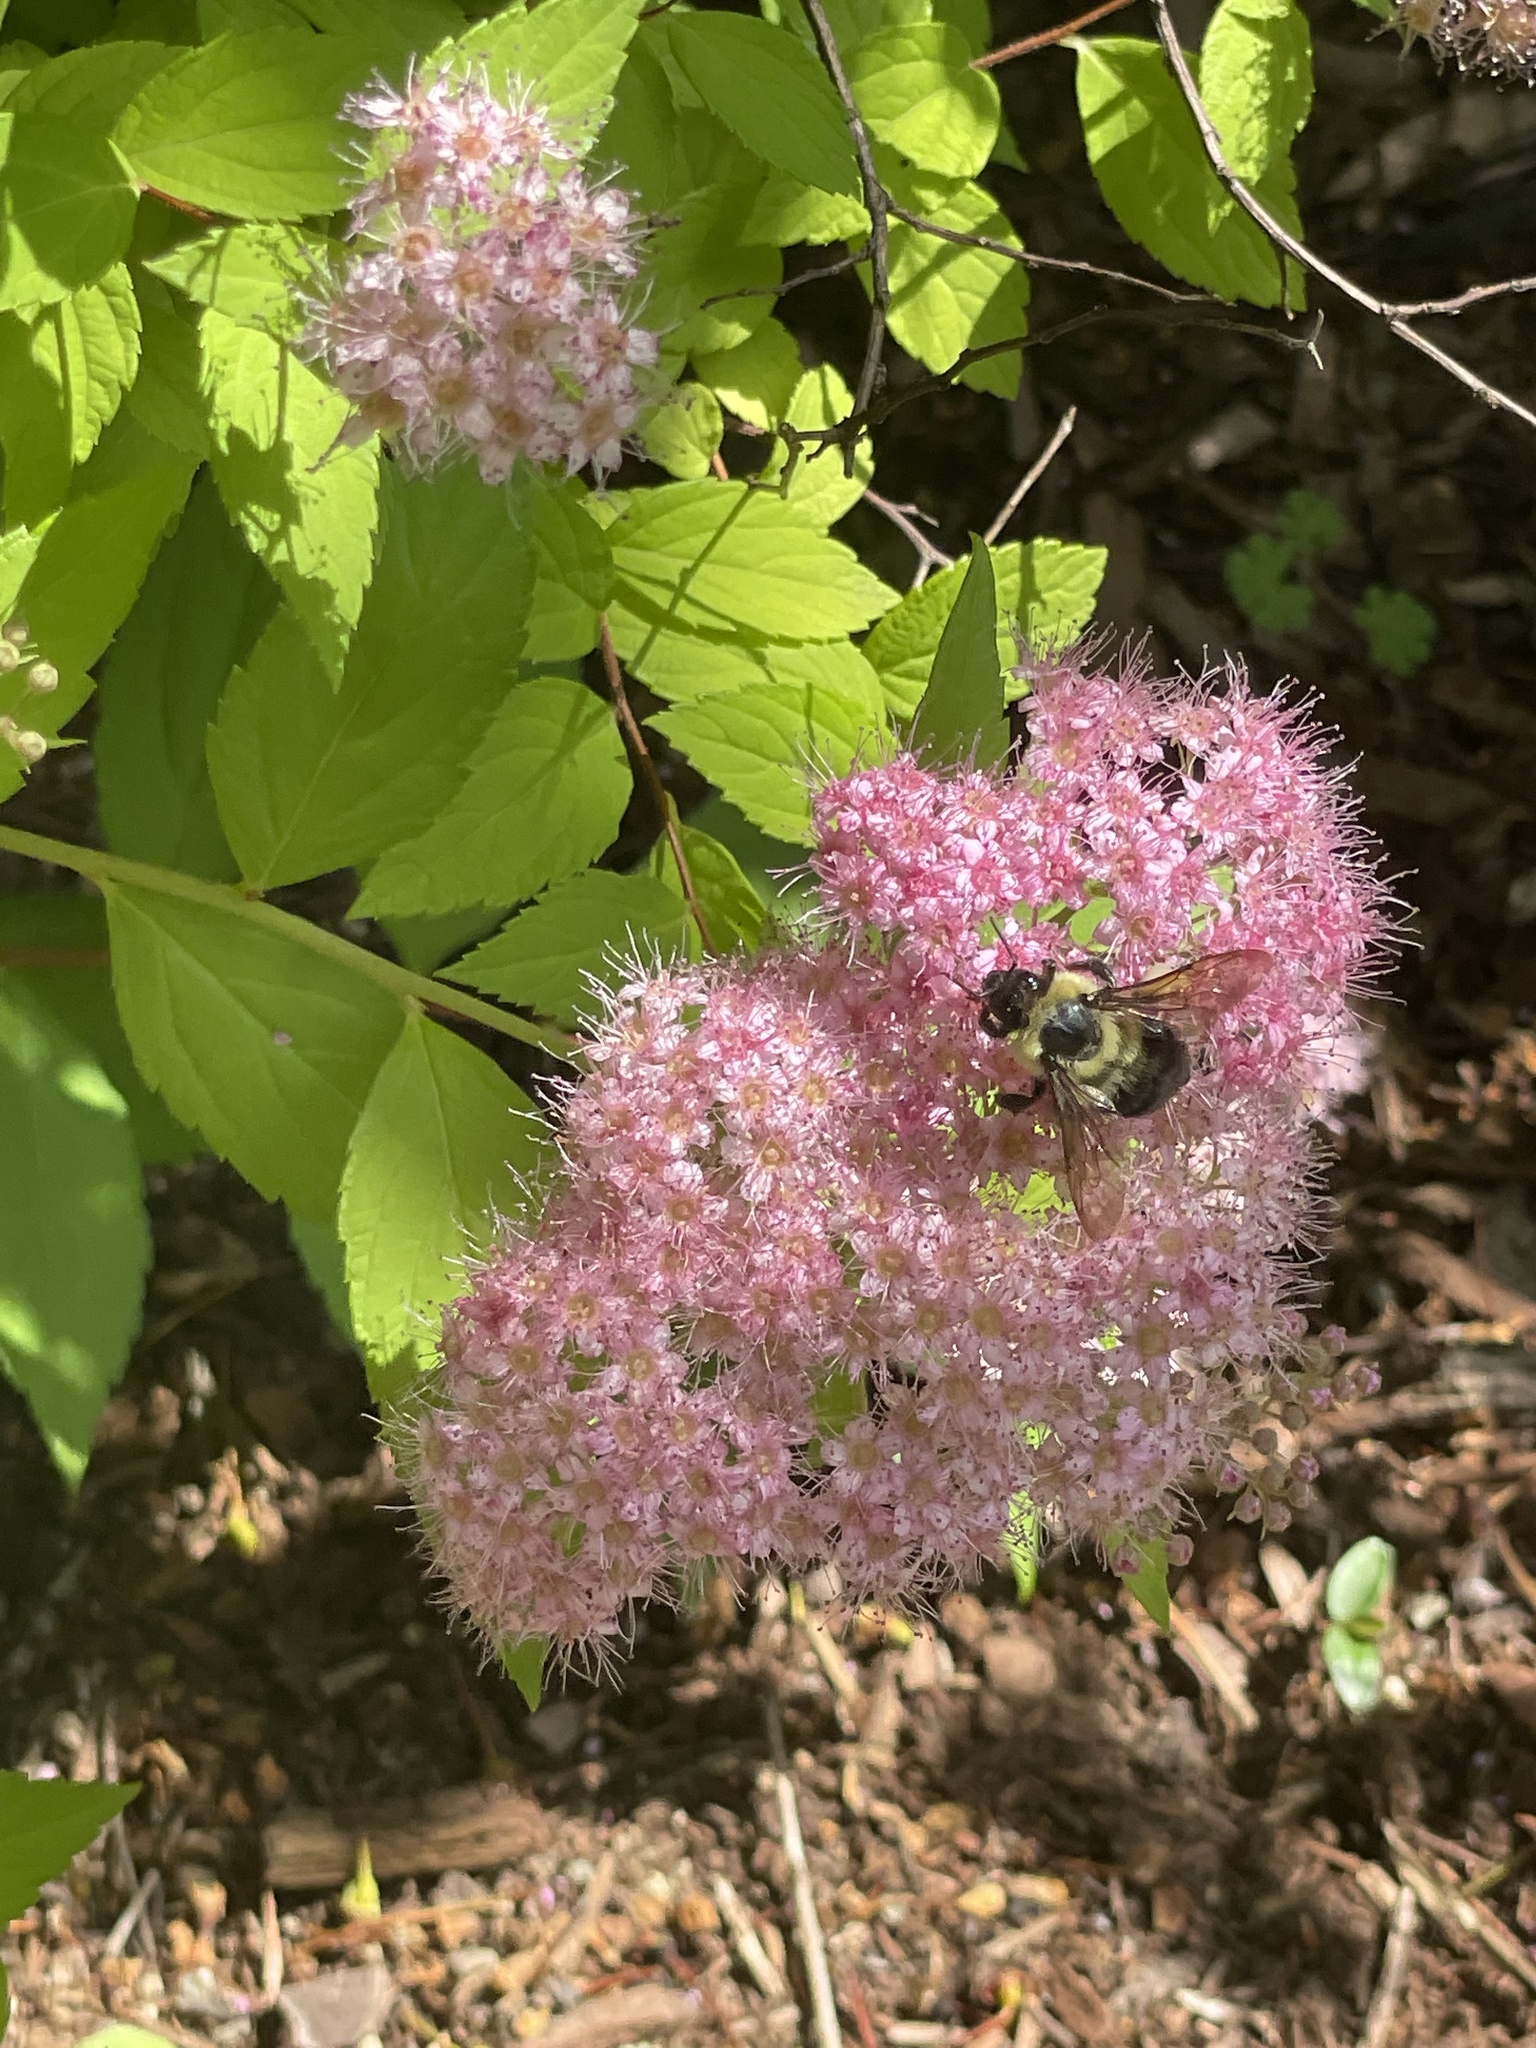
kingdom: Animalia
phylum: Arthropoda
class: Insecta
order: Hymenoptera
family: Apidae
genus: Bombus
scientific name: Bombus bimaculatus
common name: Two-spotted bumble bee
